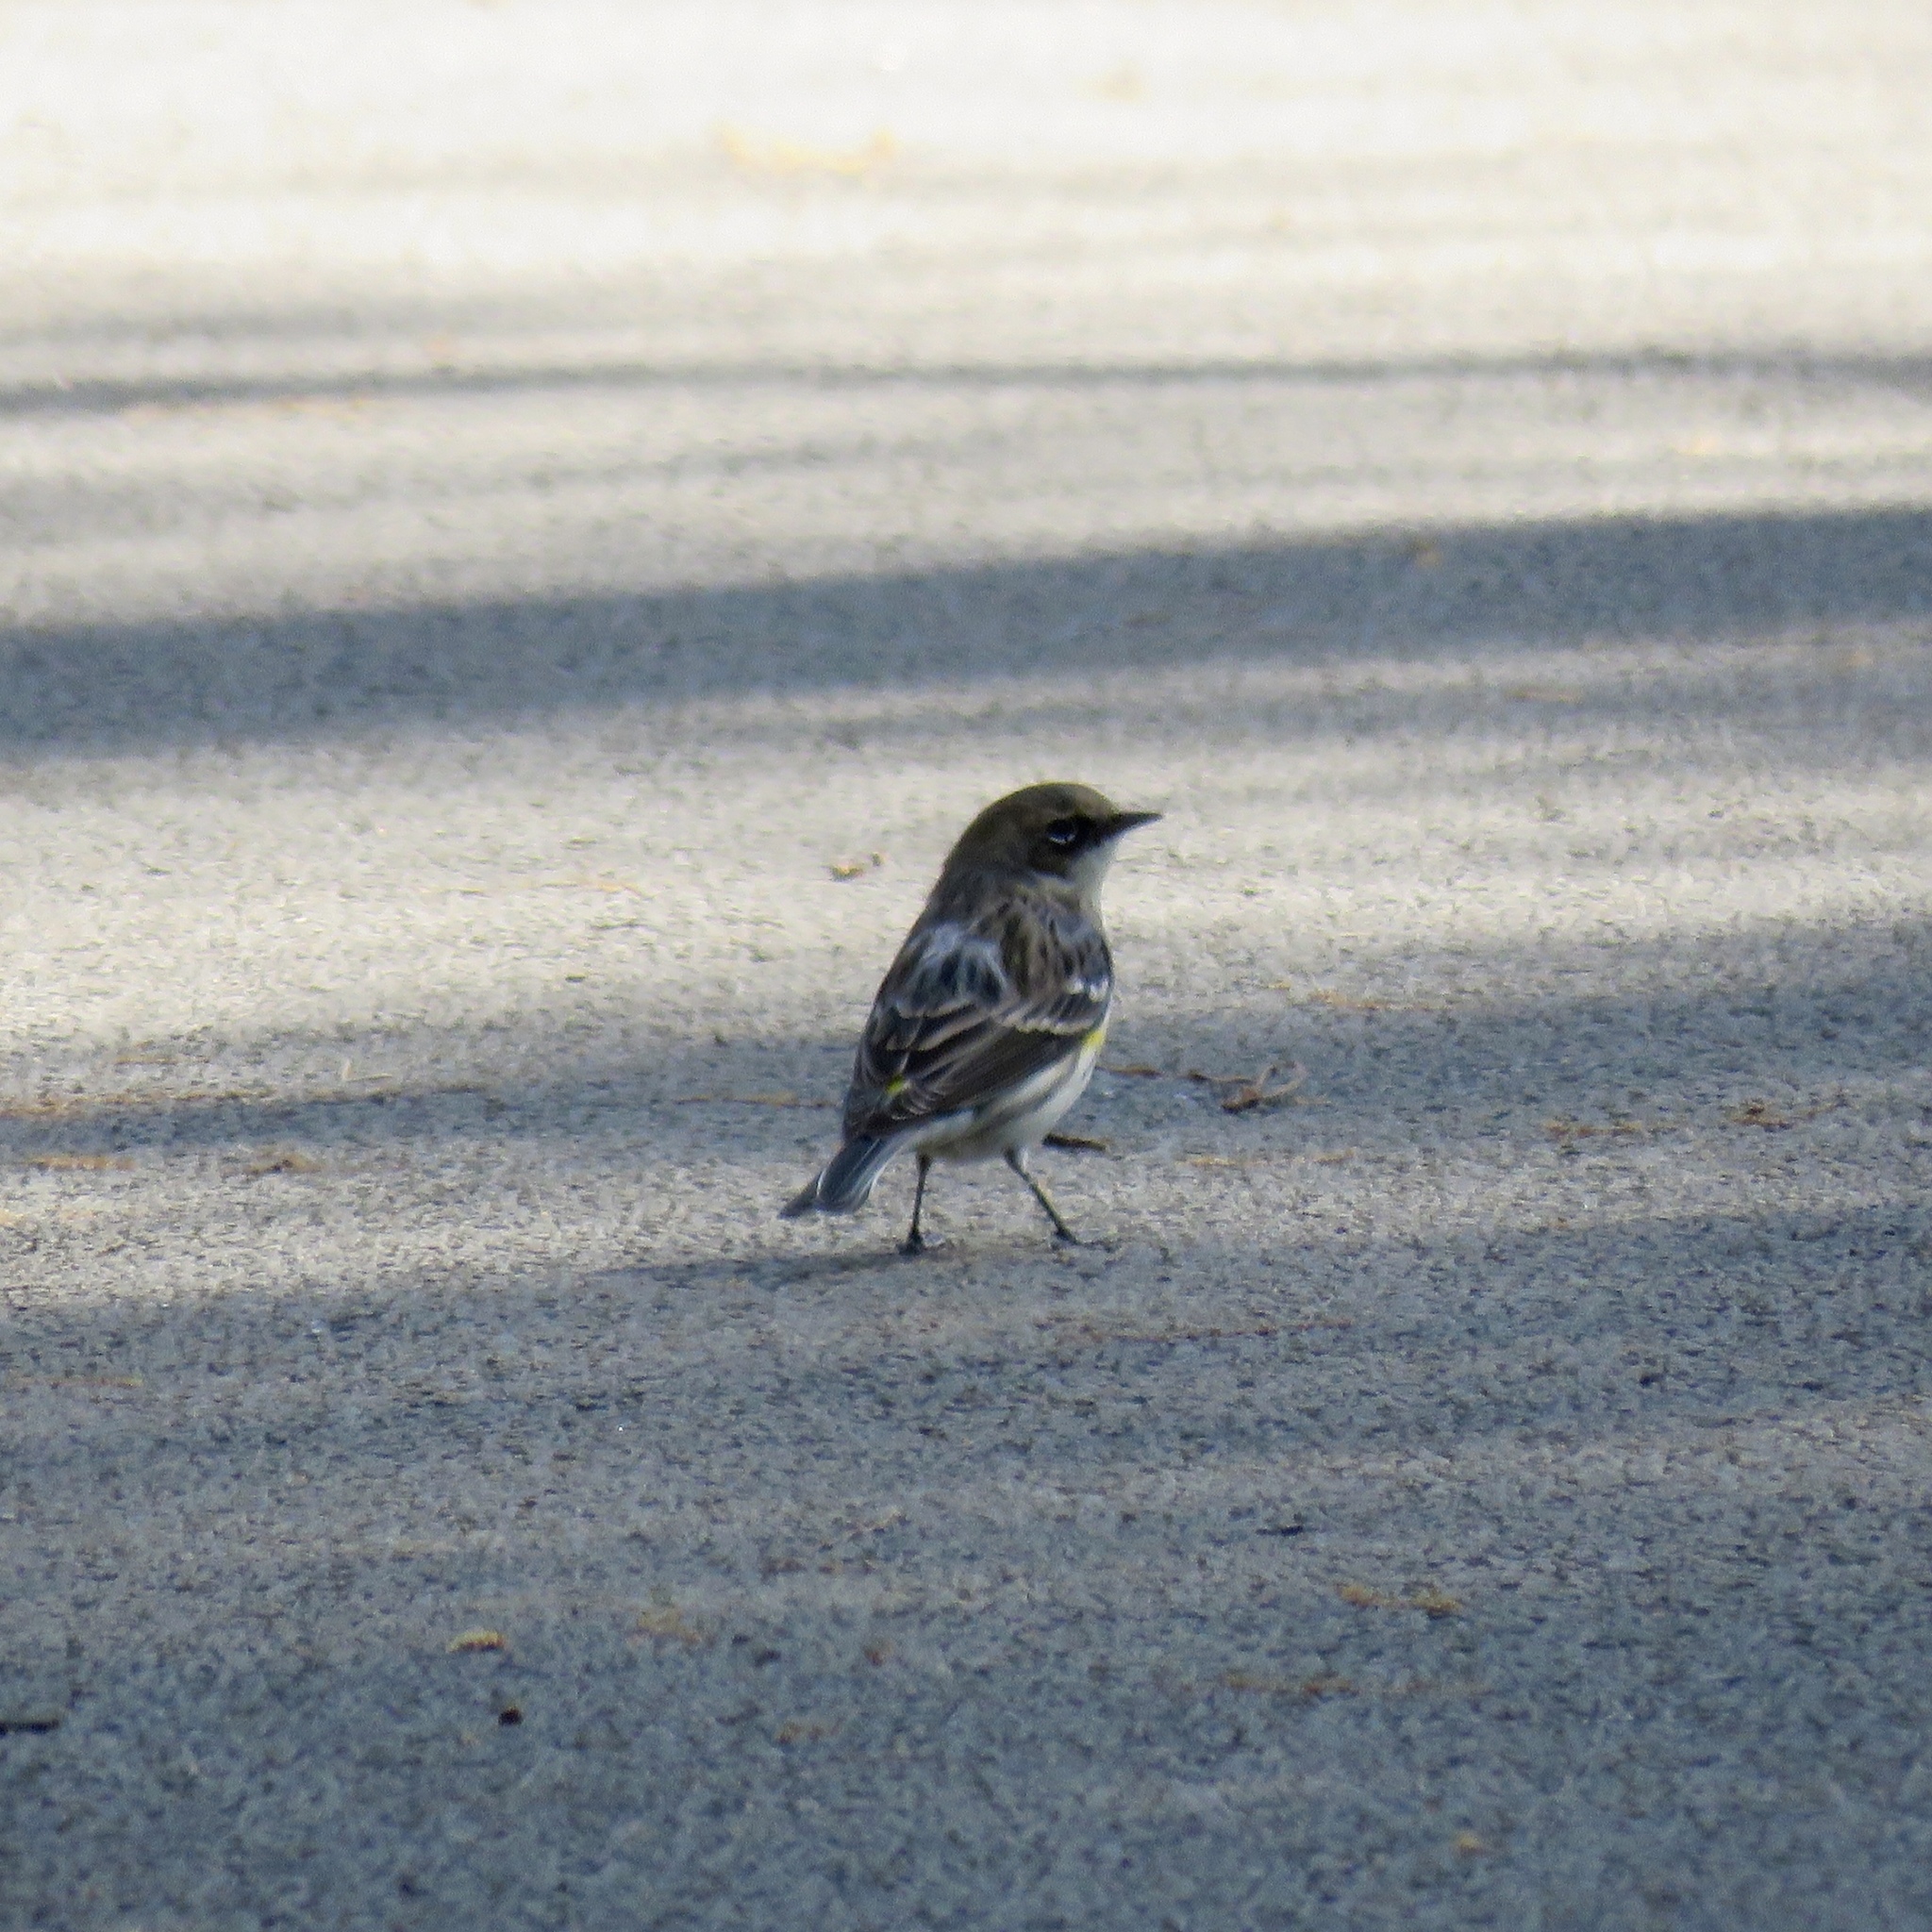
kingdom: Animalia
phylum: Chordata
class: Aves
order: Passeriformes
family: Parulidae
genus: Setophaga
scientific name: Setophaga coronata
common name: Myrtle warbler
